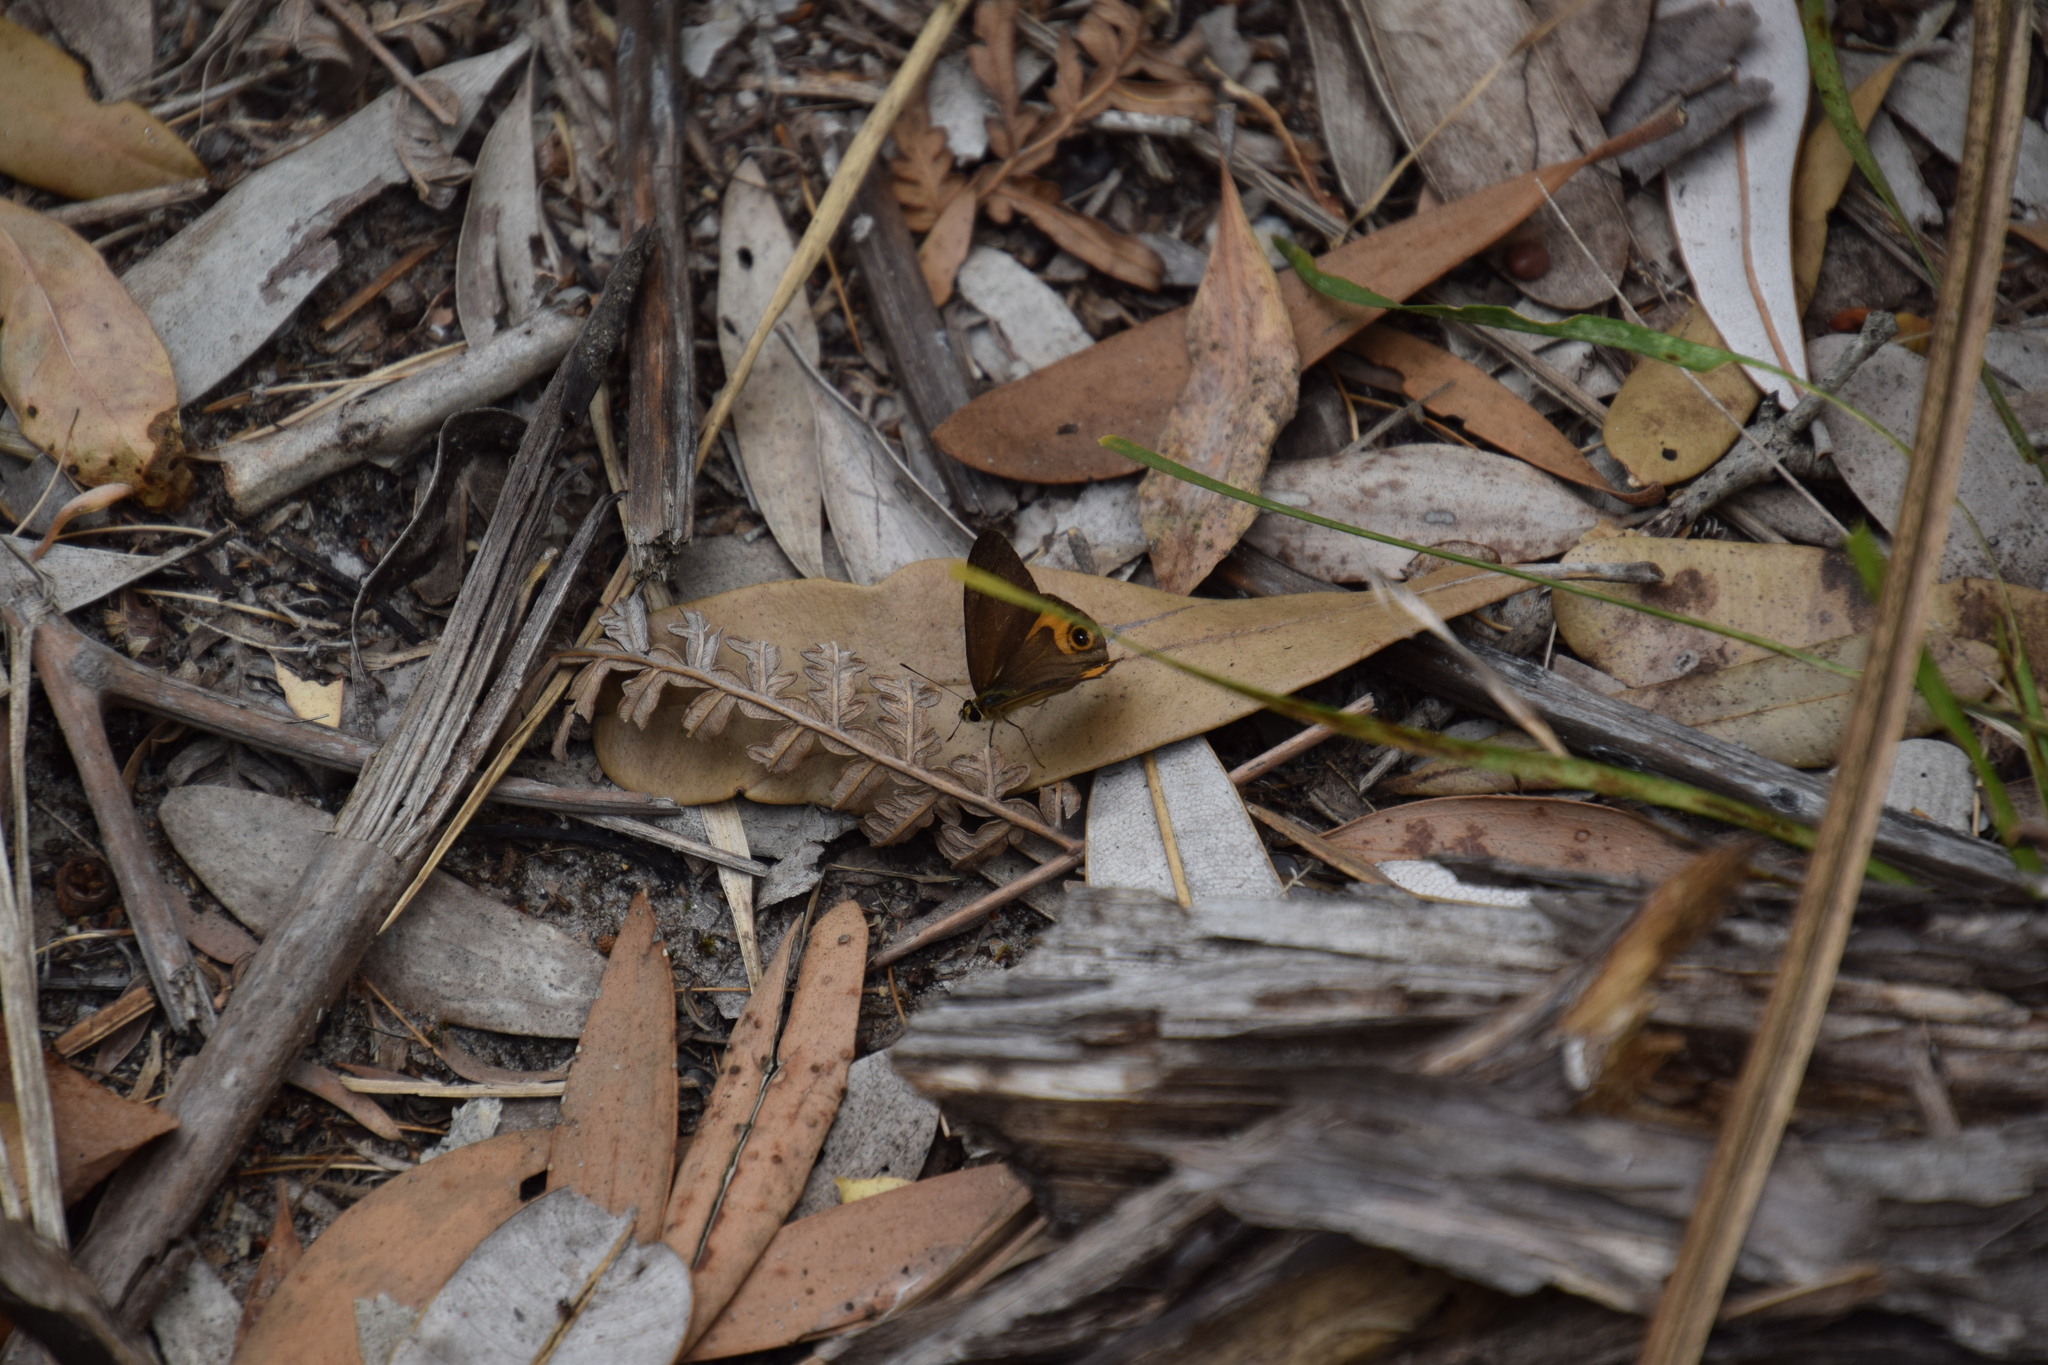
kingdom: Animalia
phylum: Arthropoda
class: Insecta
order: Lepidoptera
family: Nymphalidae
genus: Hypocysta
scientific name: Hypocysta metirius
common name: Brown ringlet
